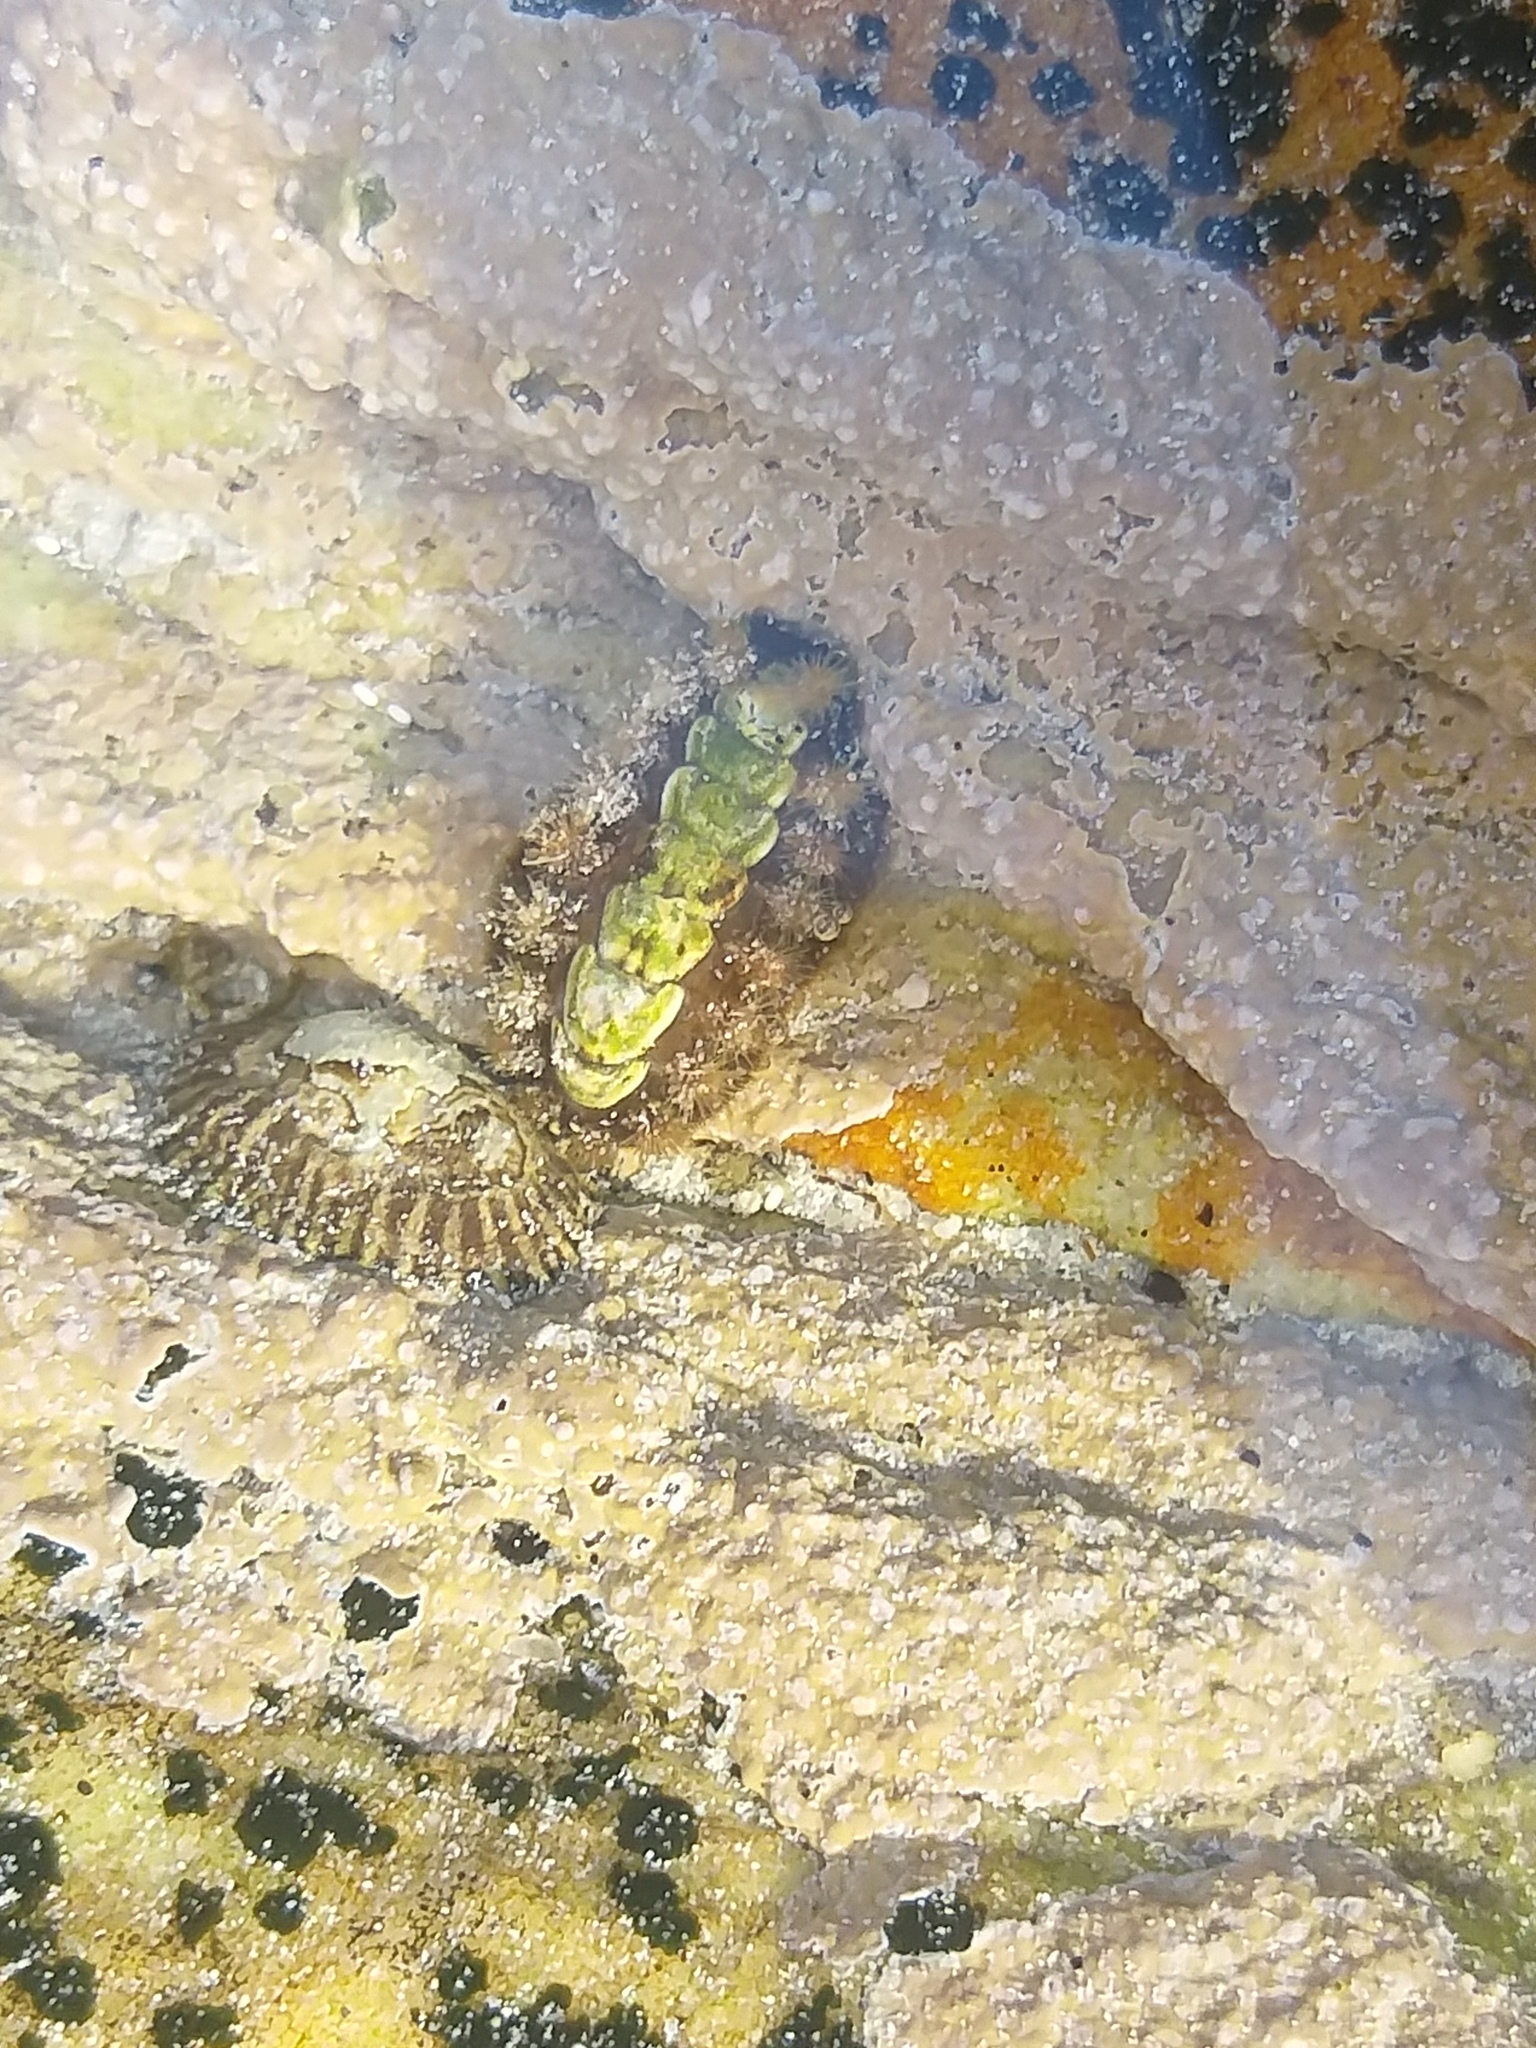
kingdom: Animalia
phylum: Mollusca
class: Polyplacophora
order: Chitonida
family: Acanthochitonidae
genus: Acanthochitona
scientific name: Acanthochitona garnoti
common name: Spiny chiton
